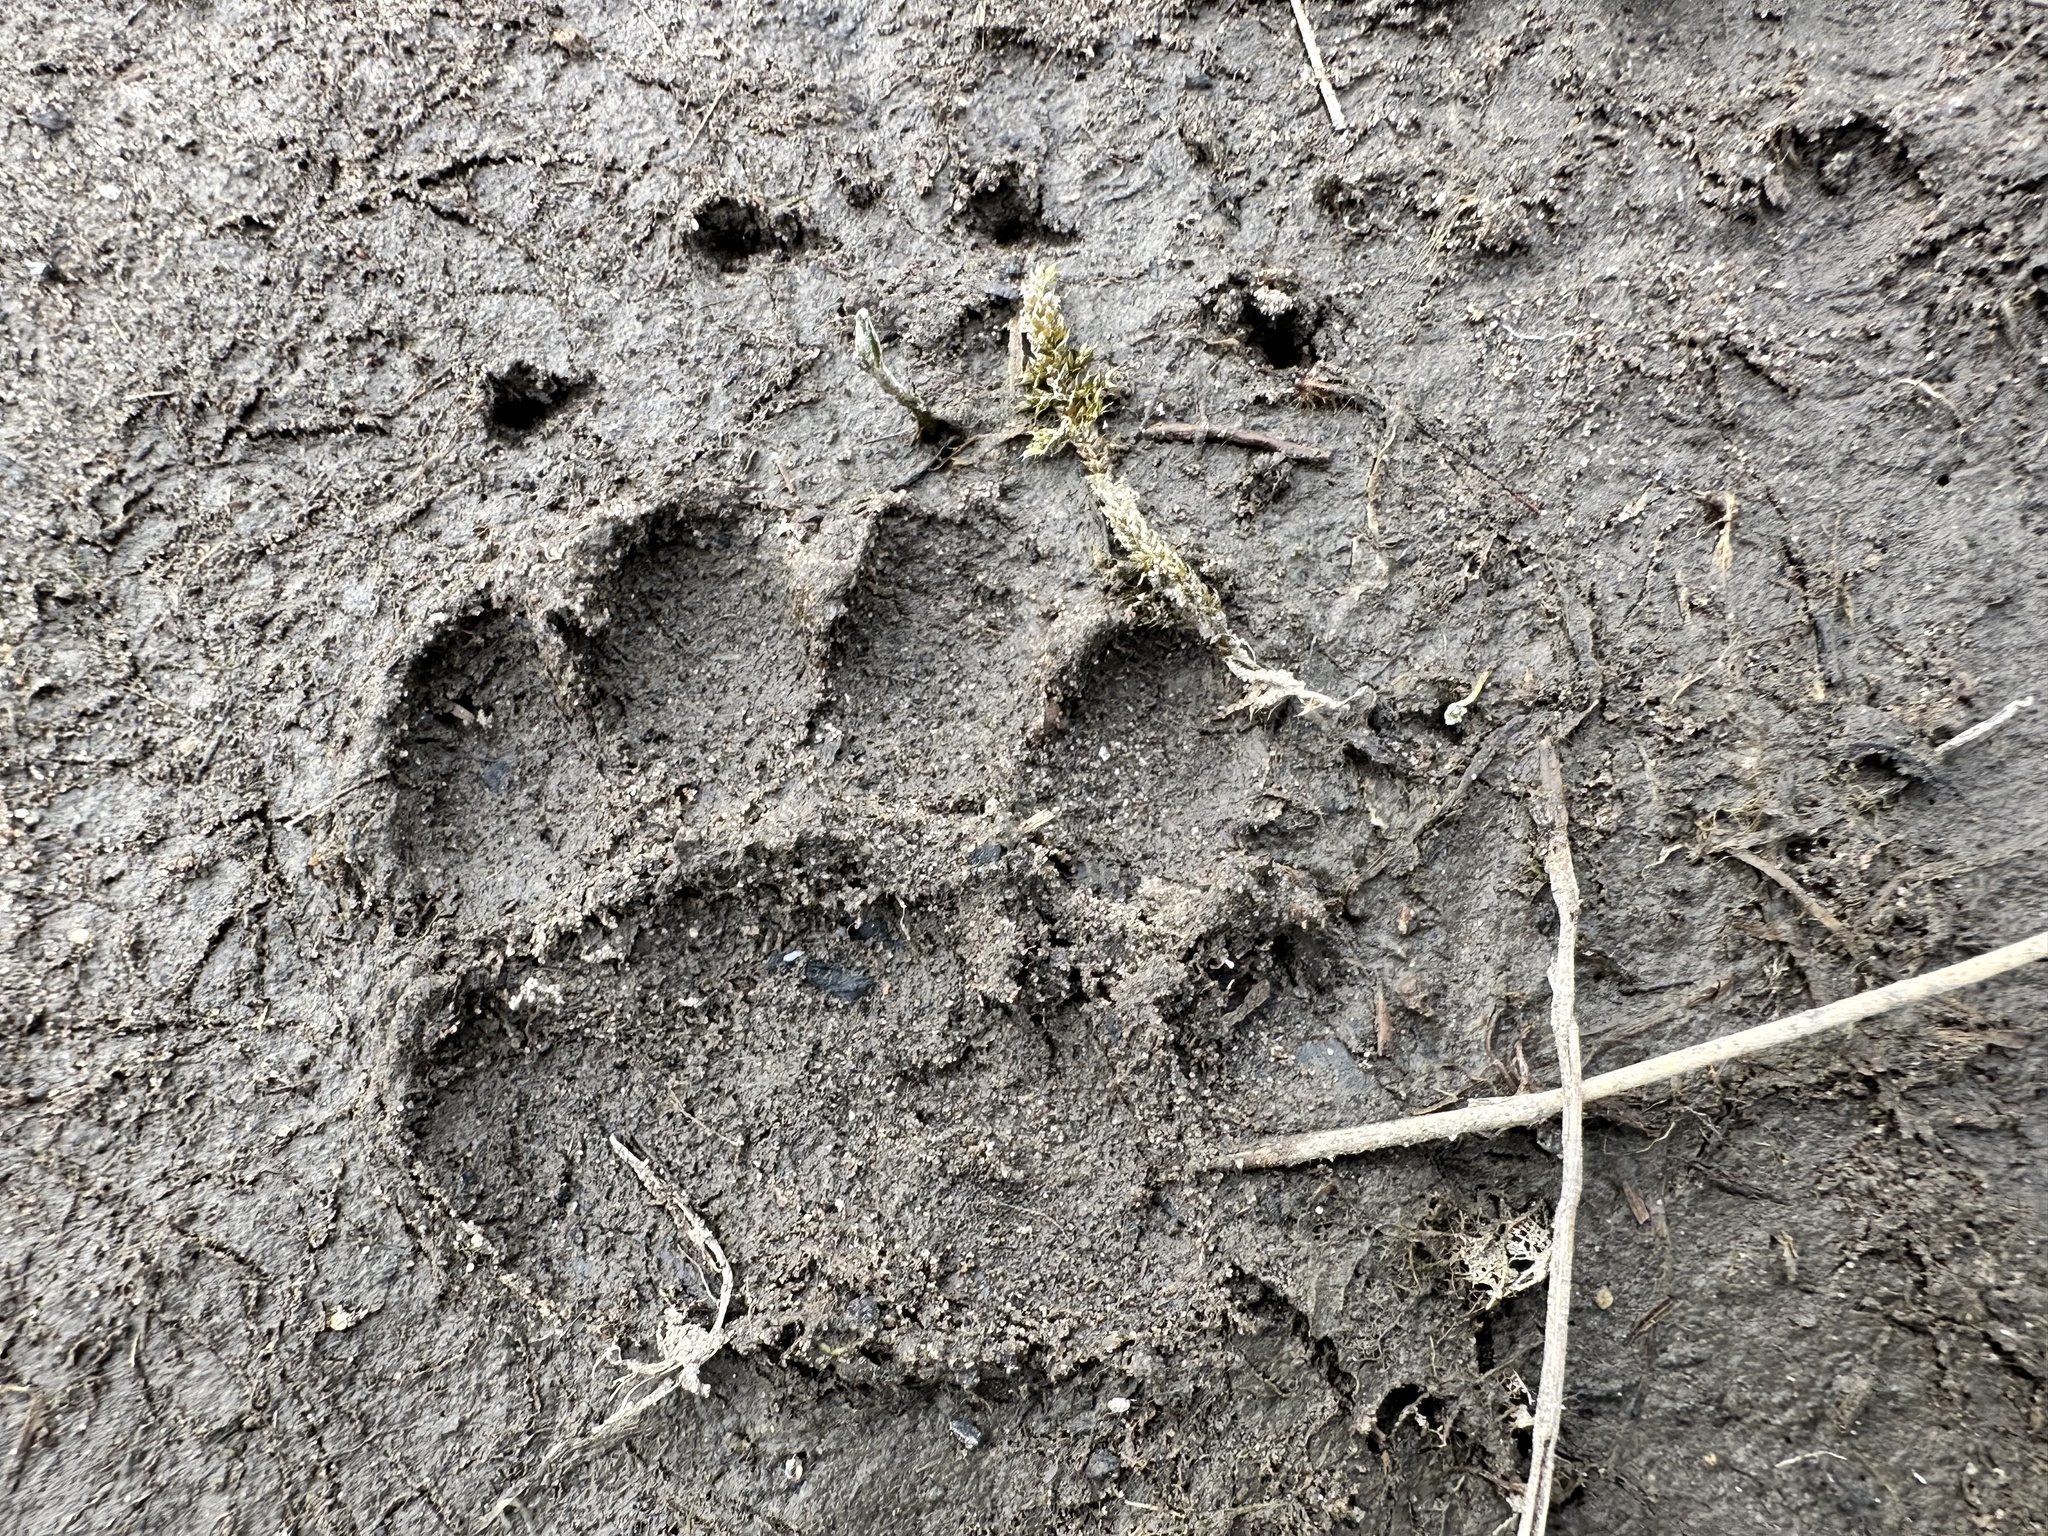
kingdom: Animalia
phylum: Chordata
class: Mammalia
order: Carnivora
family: Mustelidae
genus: Meles
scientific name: Meles meles
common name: Eurasian badger
